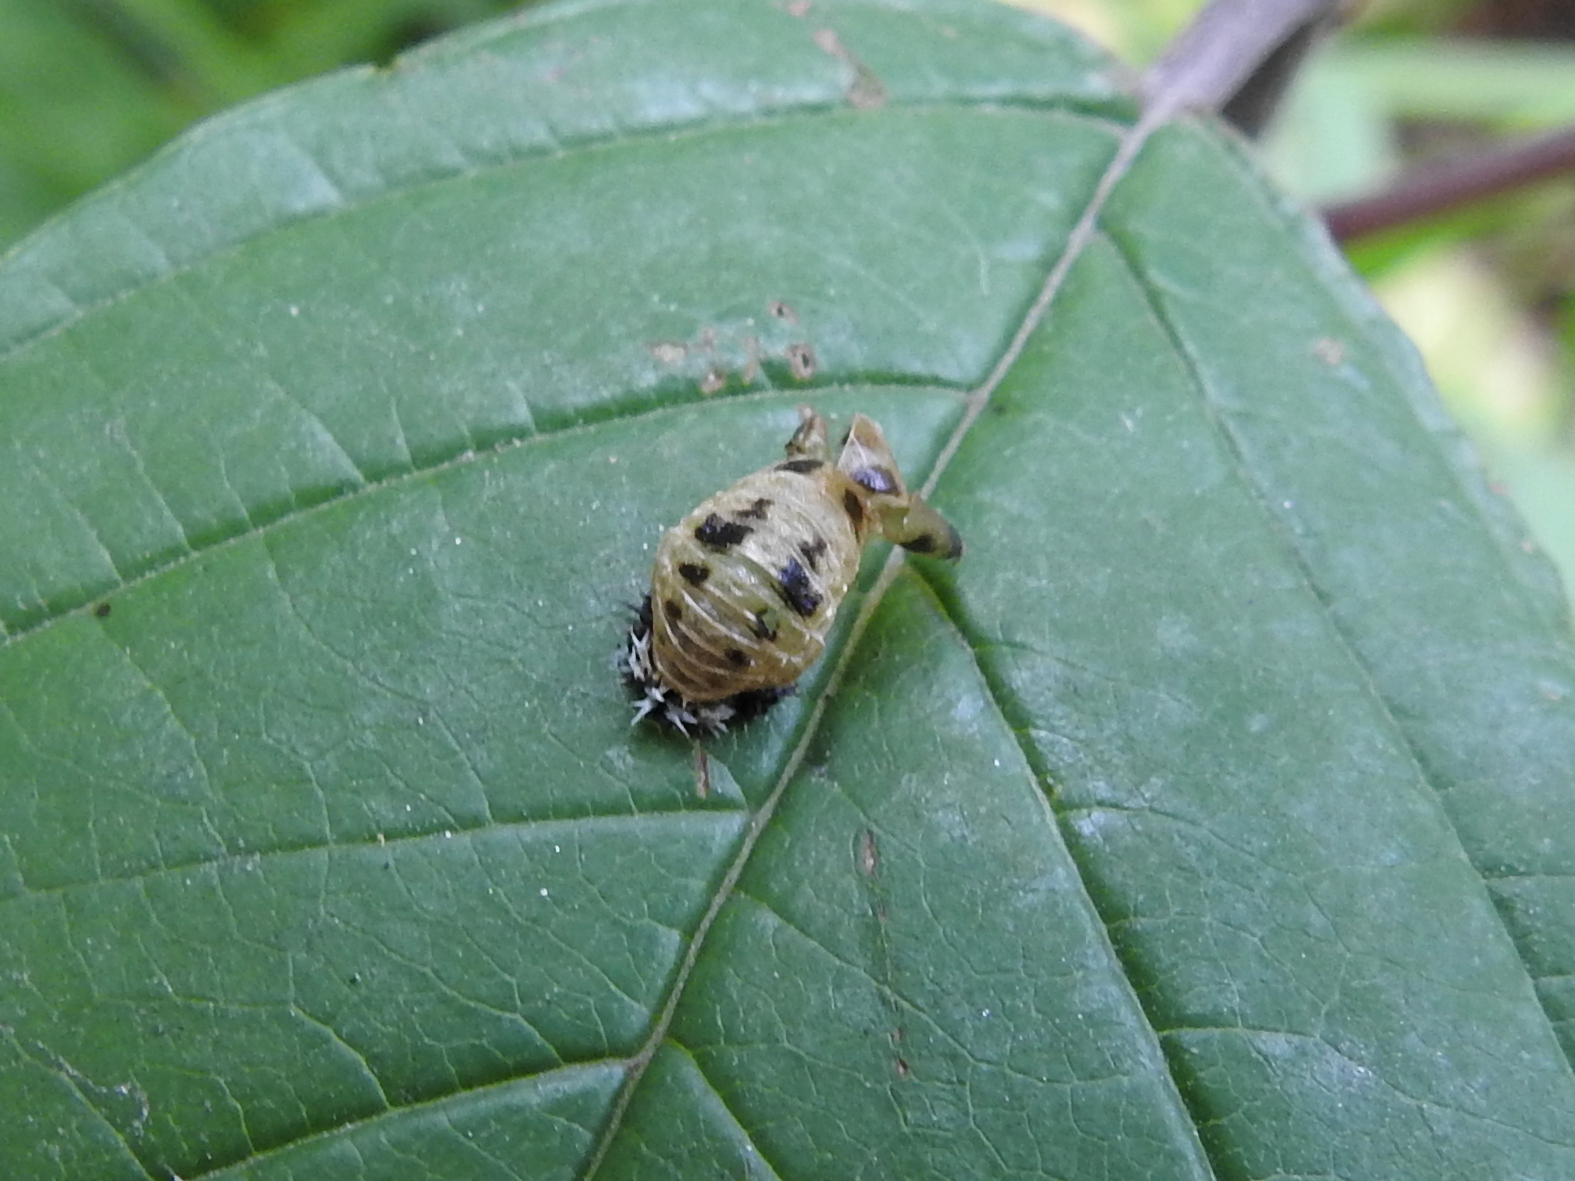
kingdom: Animalia
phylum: Arthropoda
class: Insecta
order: Coleoptera
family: Coccinellidae
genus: Harmonia
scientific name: Harmonia axyridis
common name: Harlequin ladybird
